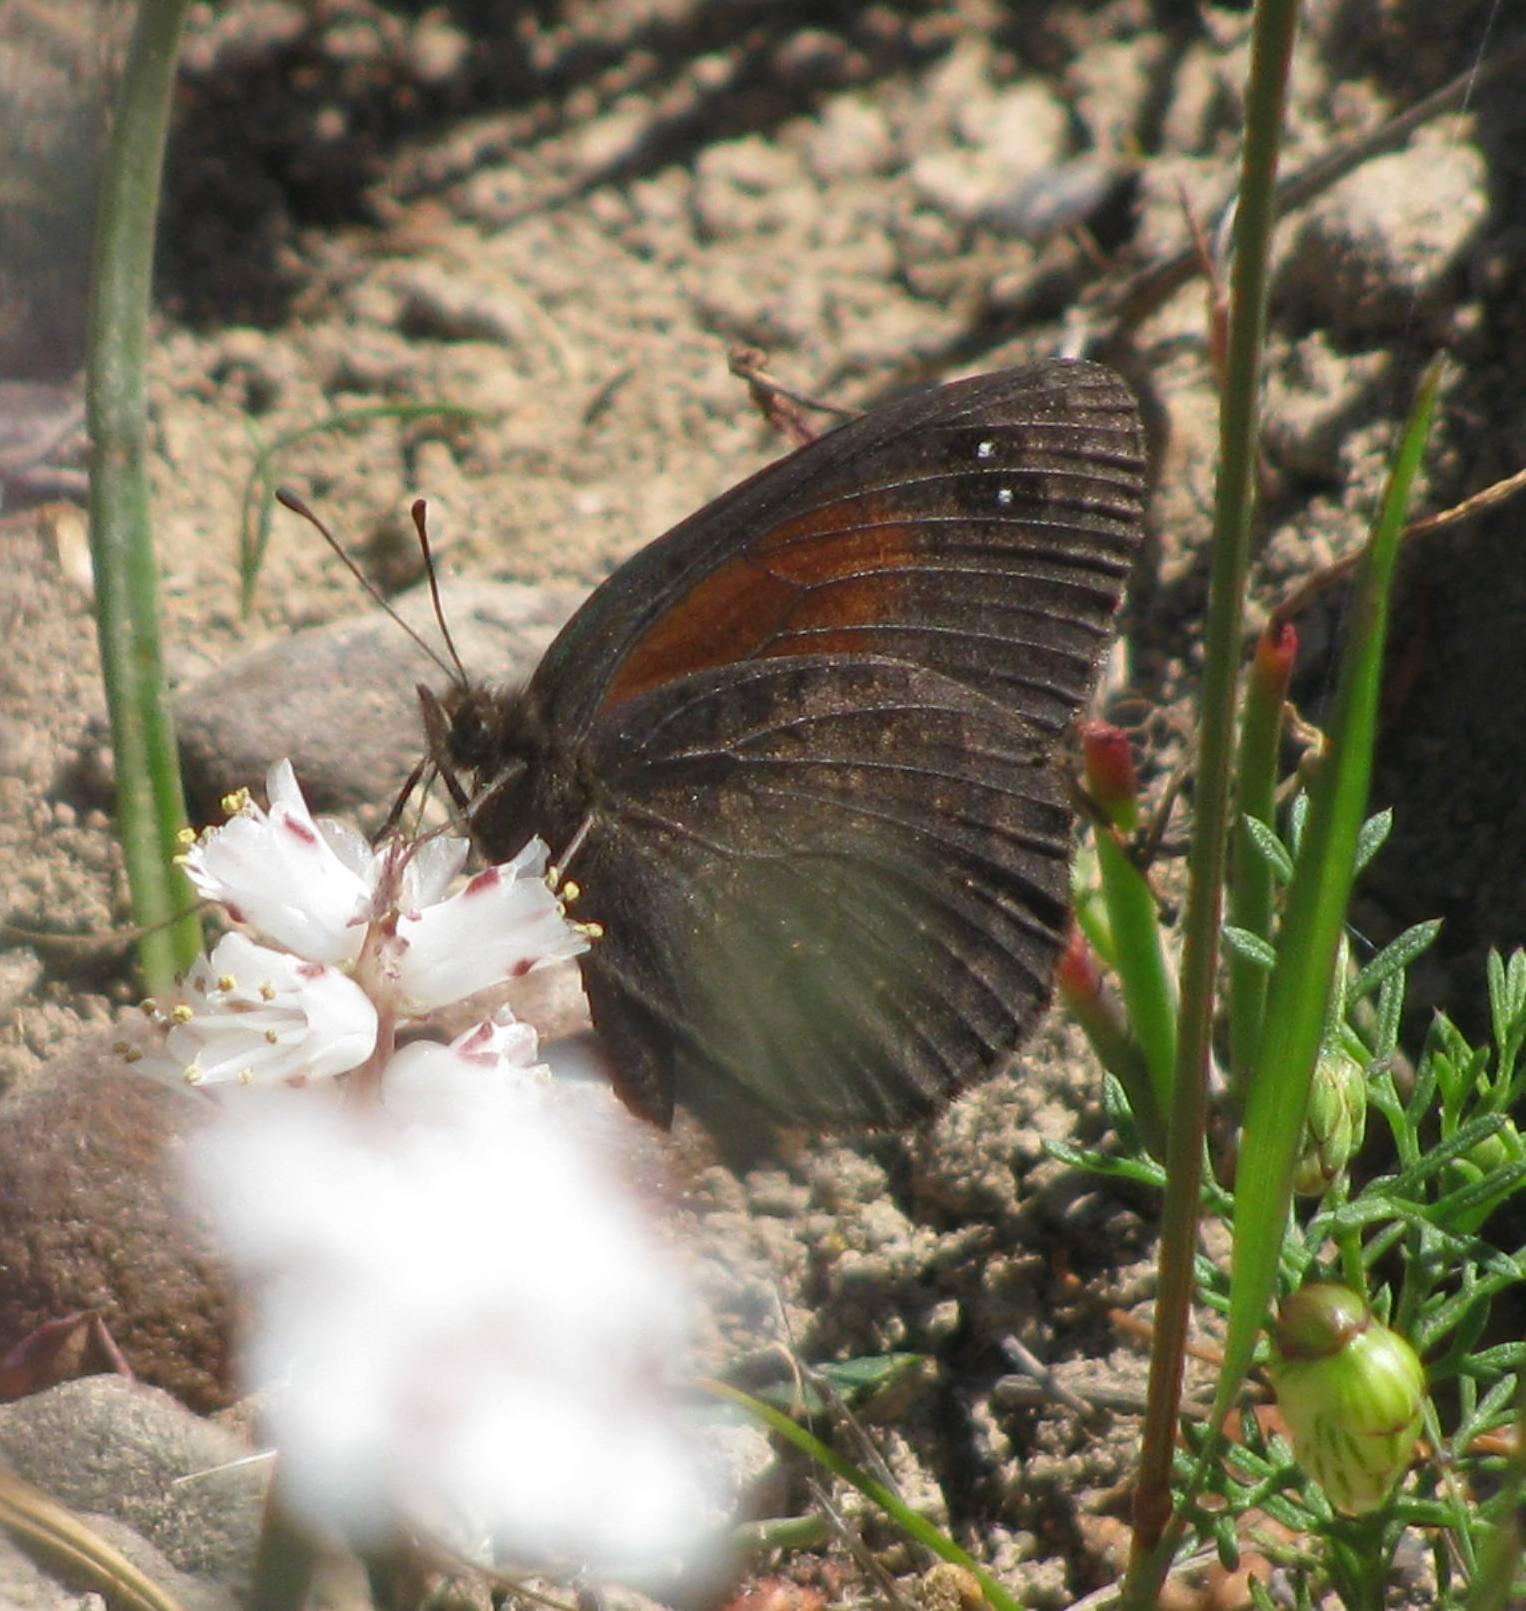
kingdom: Animalia
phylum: Arthropoda
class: Insecta
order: Lepidoptera
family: Nymphalidae
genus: Erebia
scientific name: Erebia
